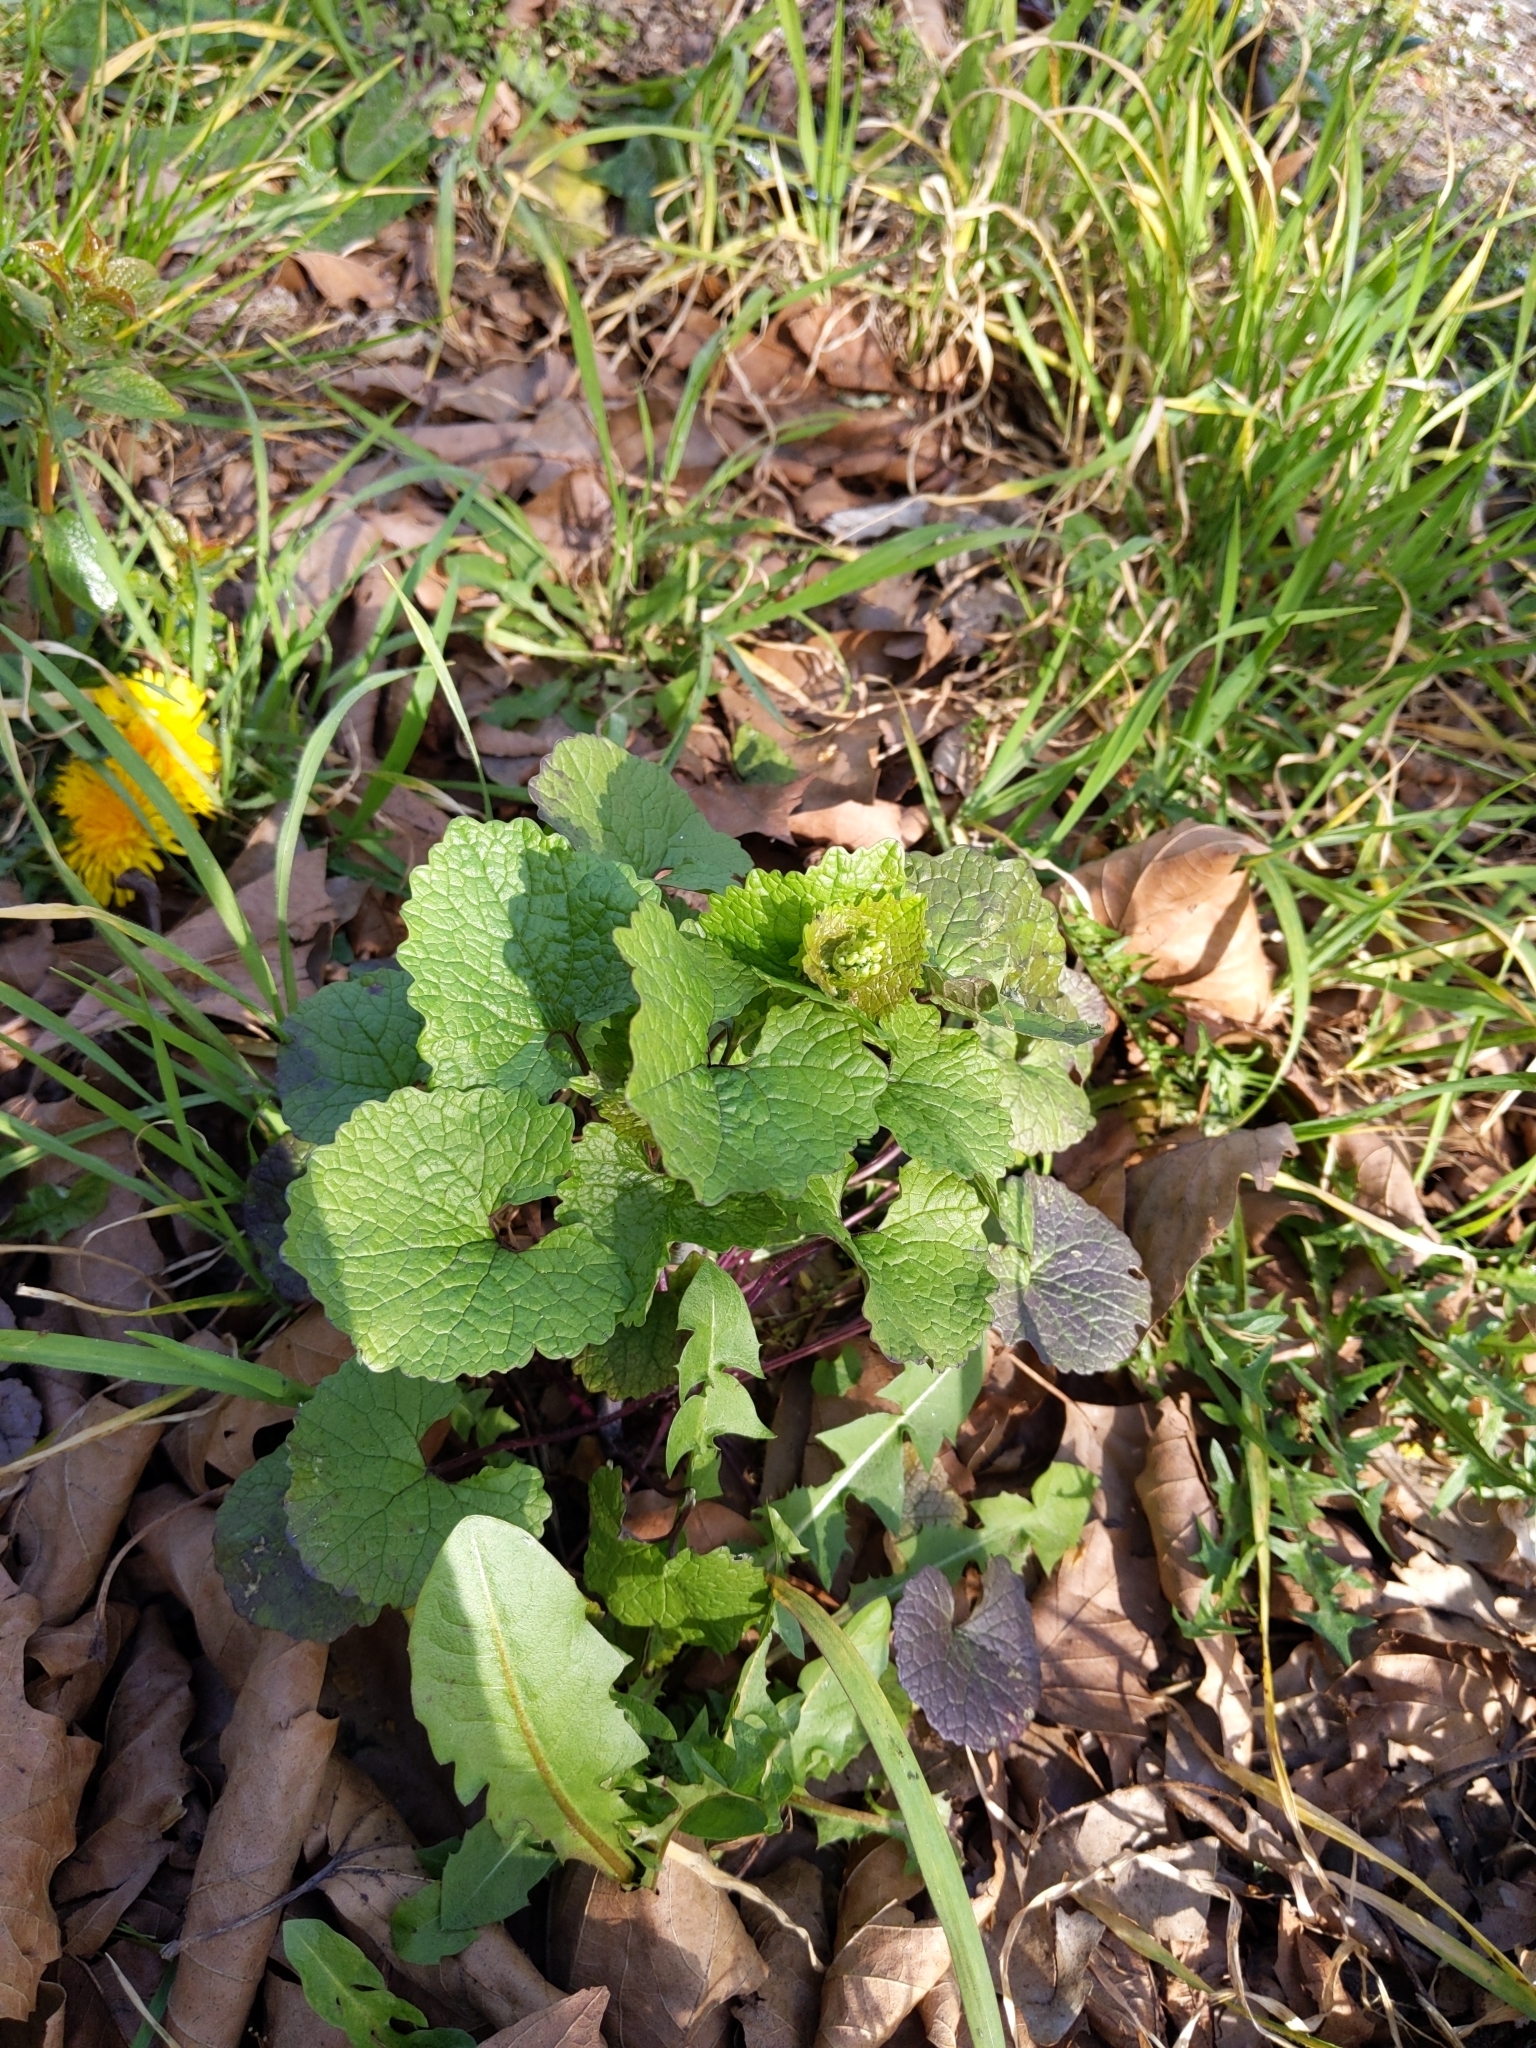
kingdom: Plantae
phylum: Tracheophyta
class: Magnoliopsida
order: Brassicales
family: Brassicaceae
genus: Alliaria
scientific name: Alliaria petiolata
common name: Garlic mustard
